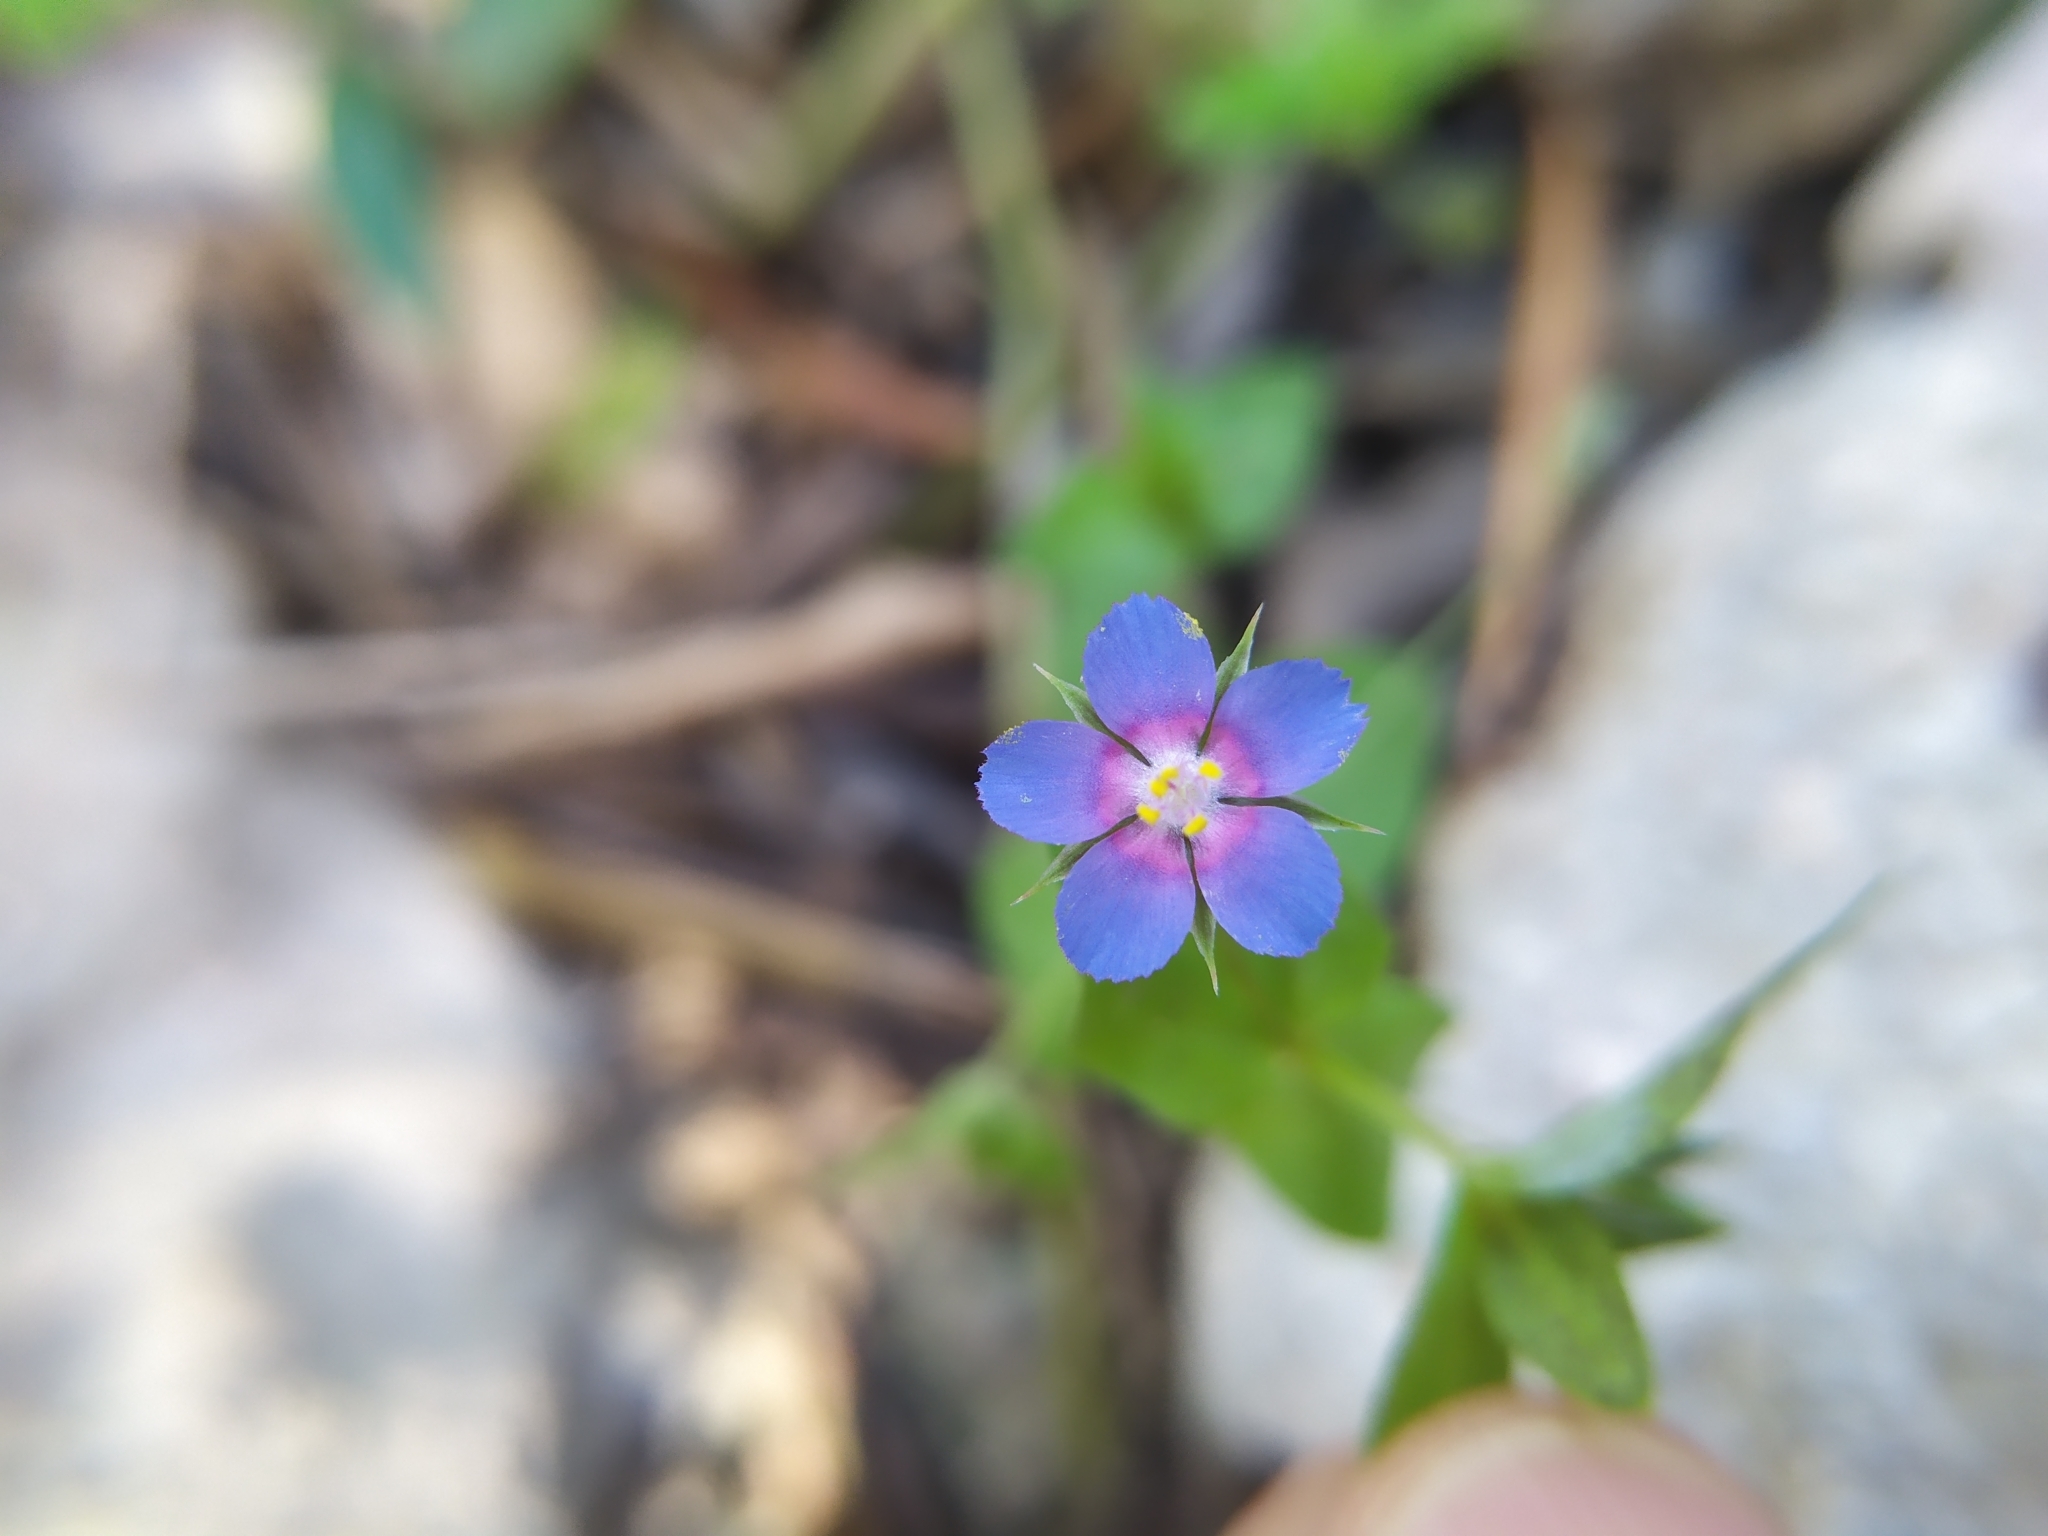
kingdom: Plantae
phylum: Tracheophyta
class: Magnoliopsida
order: Ericales
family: Primulaceae
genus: Lysimachia
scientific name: Lysimachia loeflingii
